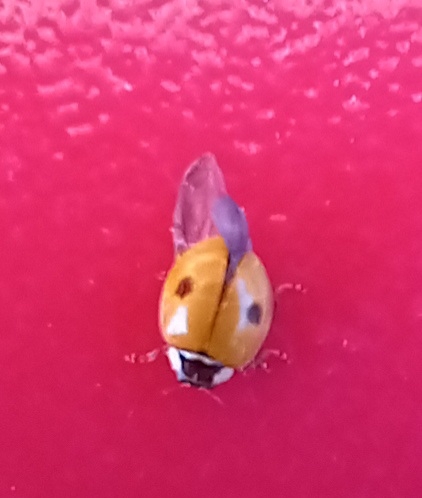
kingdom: Animalia
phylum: Arthropoda
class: Insecta
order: Coleoptera
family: Coccinellidae
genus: Adalia
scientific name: Adalia bipunctata
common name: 2-spot ladybird
